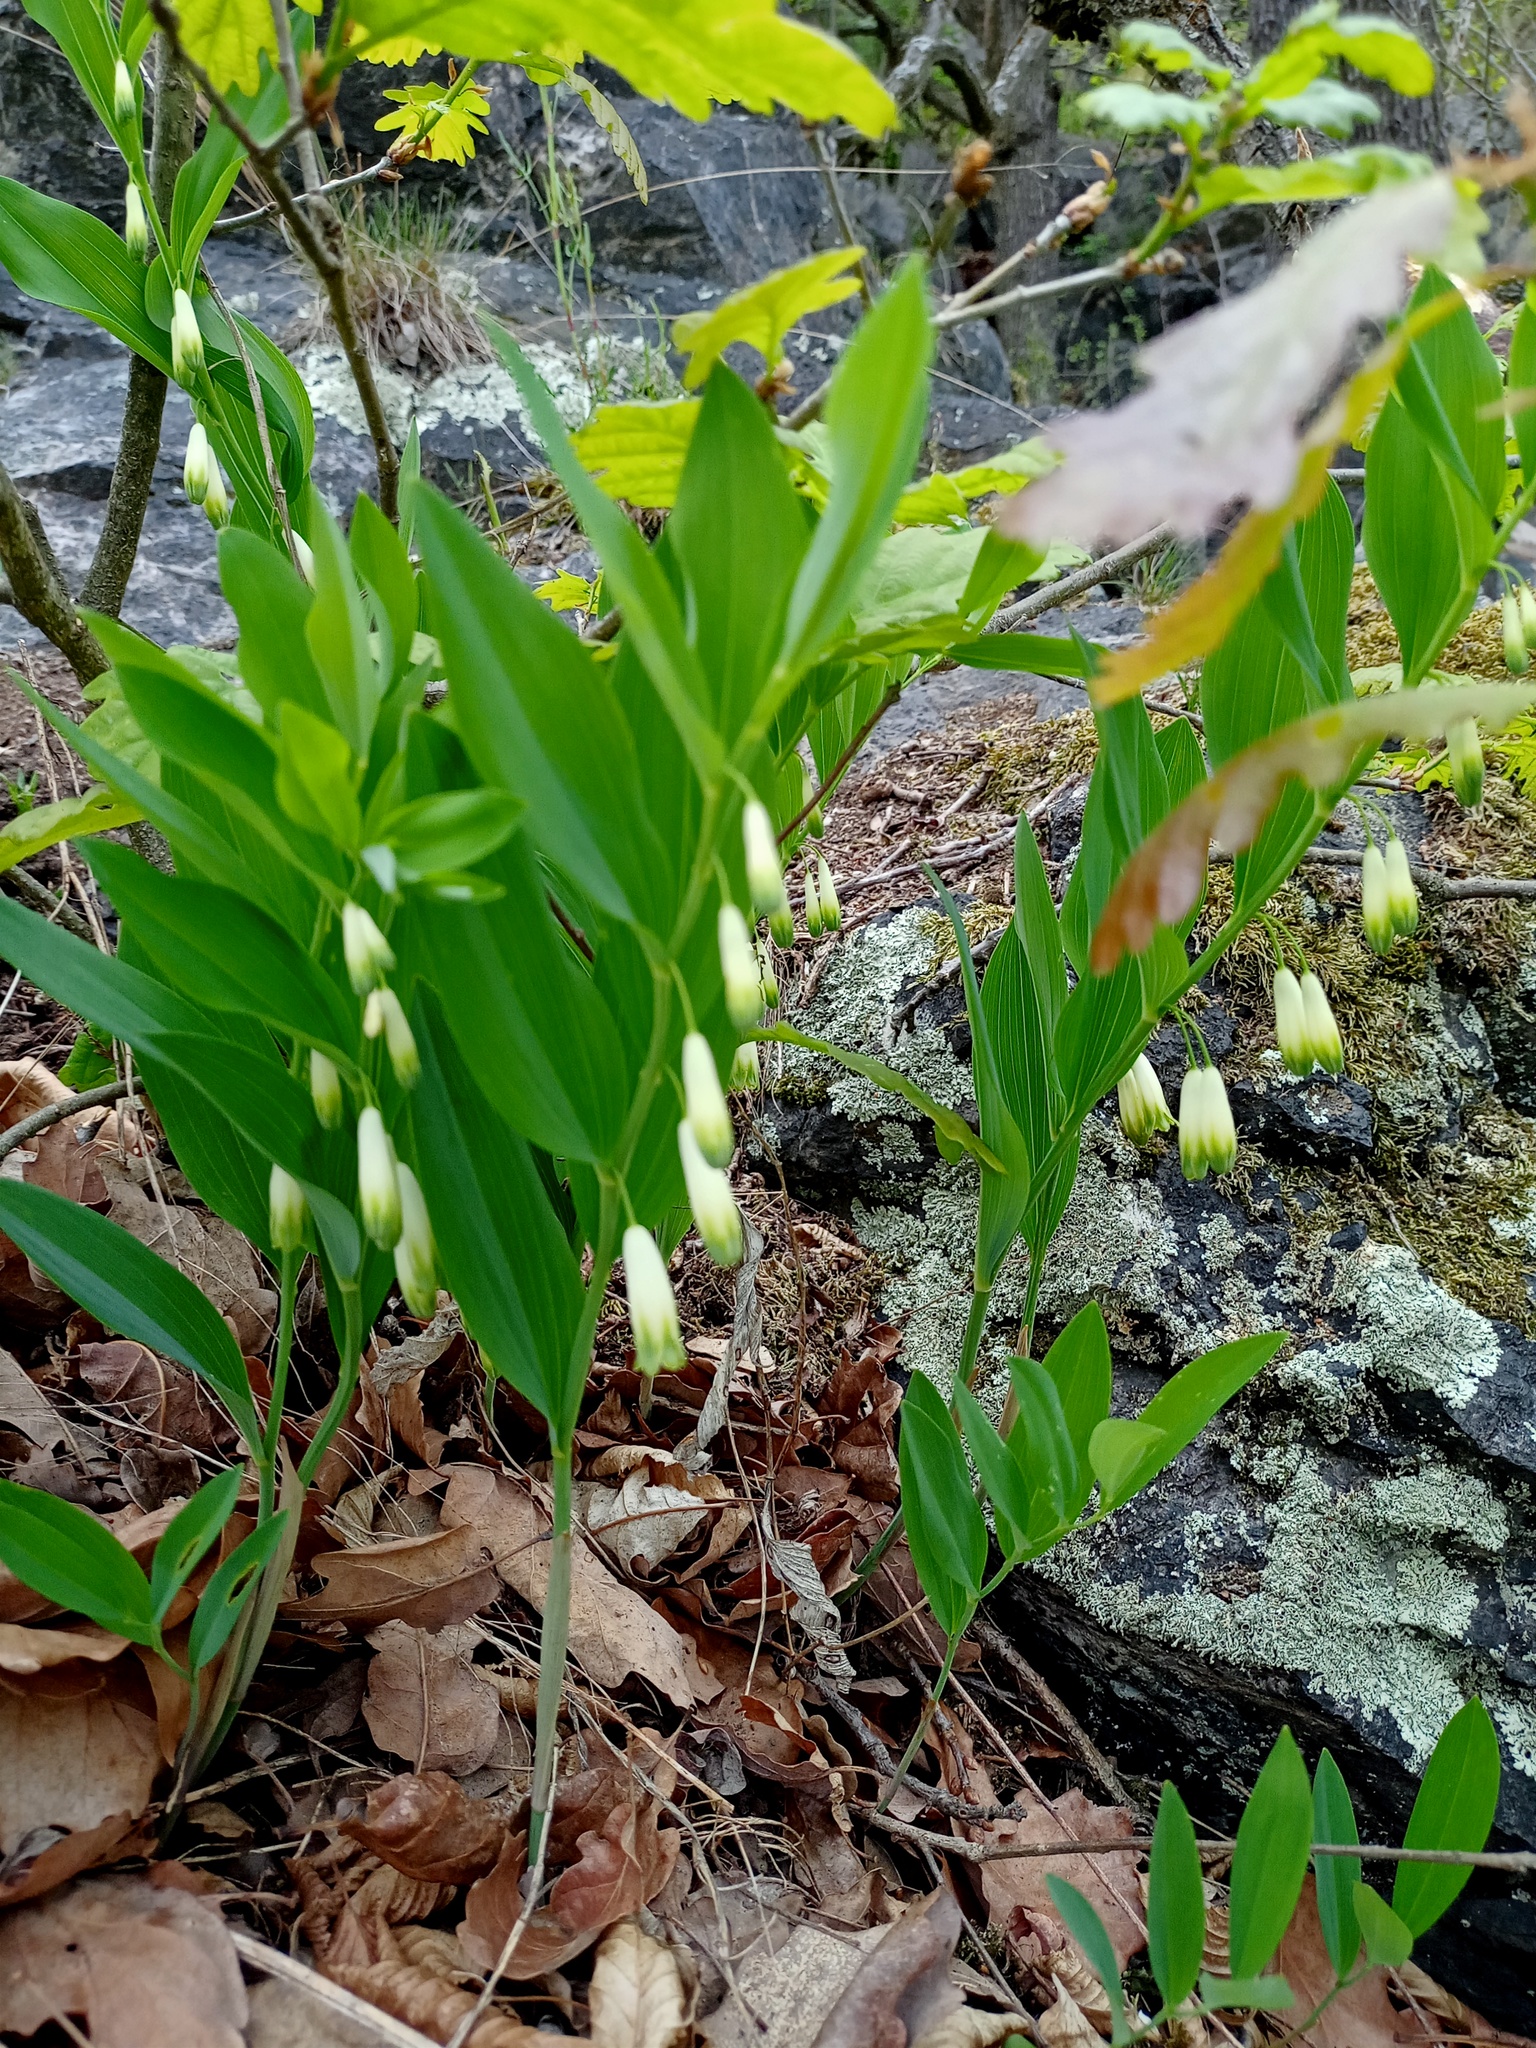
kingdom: Plantae
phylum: Tracheophyta
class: Liliopsida
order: Asparagales
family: Asparagaceae
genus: Polygonatum
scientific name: Polygonatum odoratum
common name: Angular solomon's-seal
